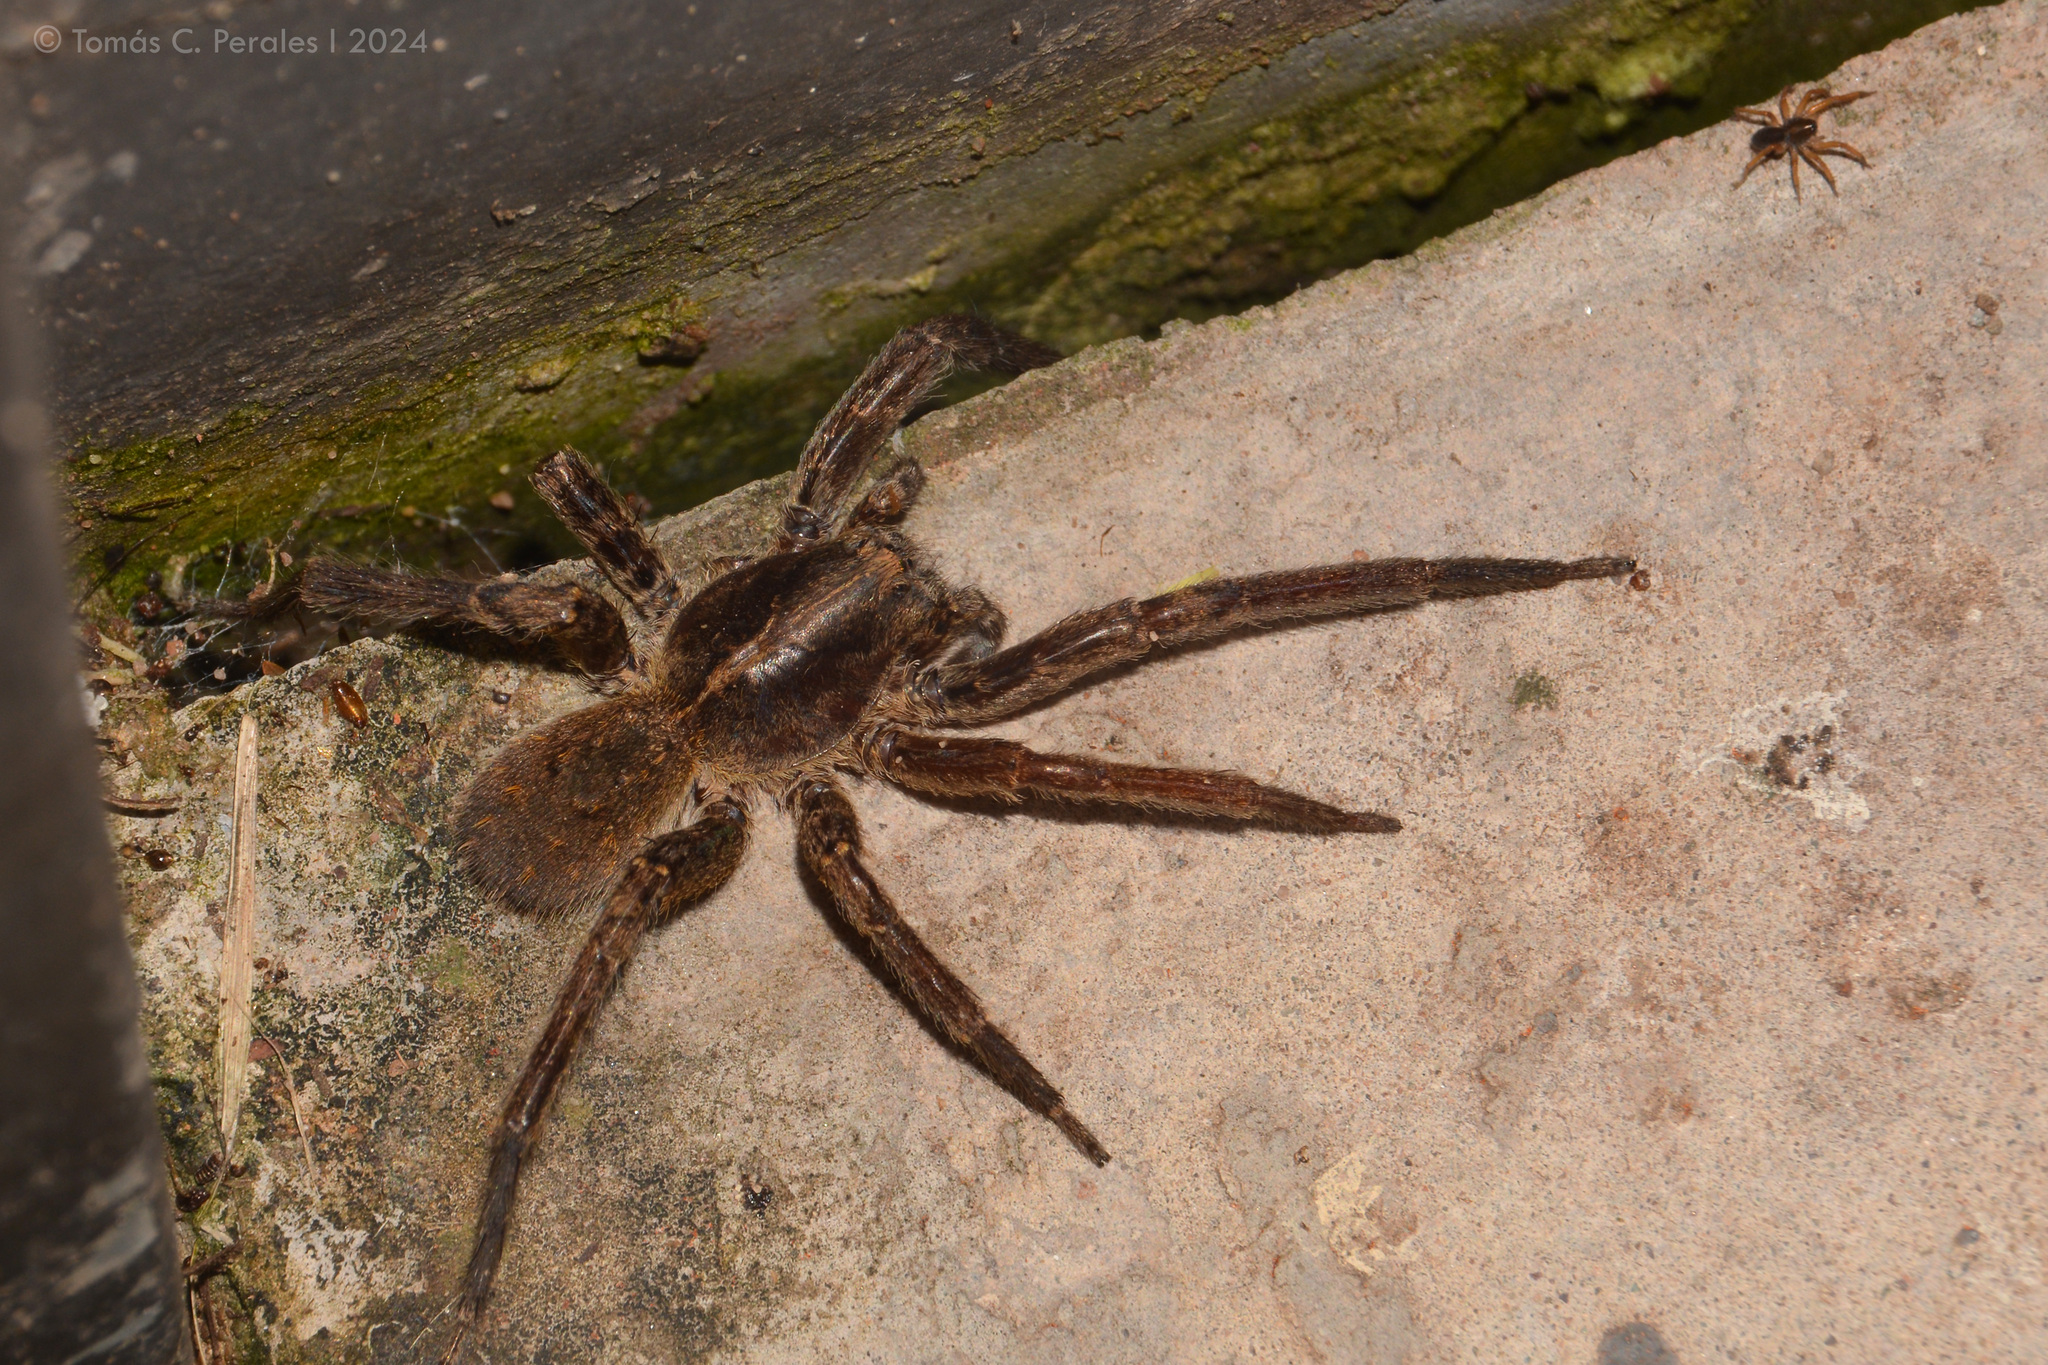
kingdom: Animalia
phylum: Arthropoda
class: Arachnida
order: Araneae
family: Ctenidae
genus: Parabatinga
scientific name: Parabatinga brevipes
